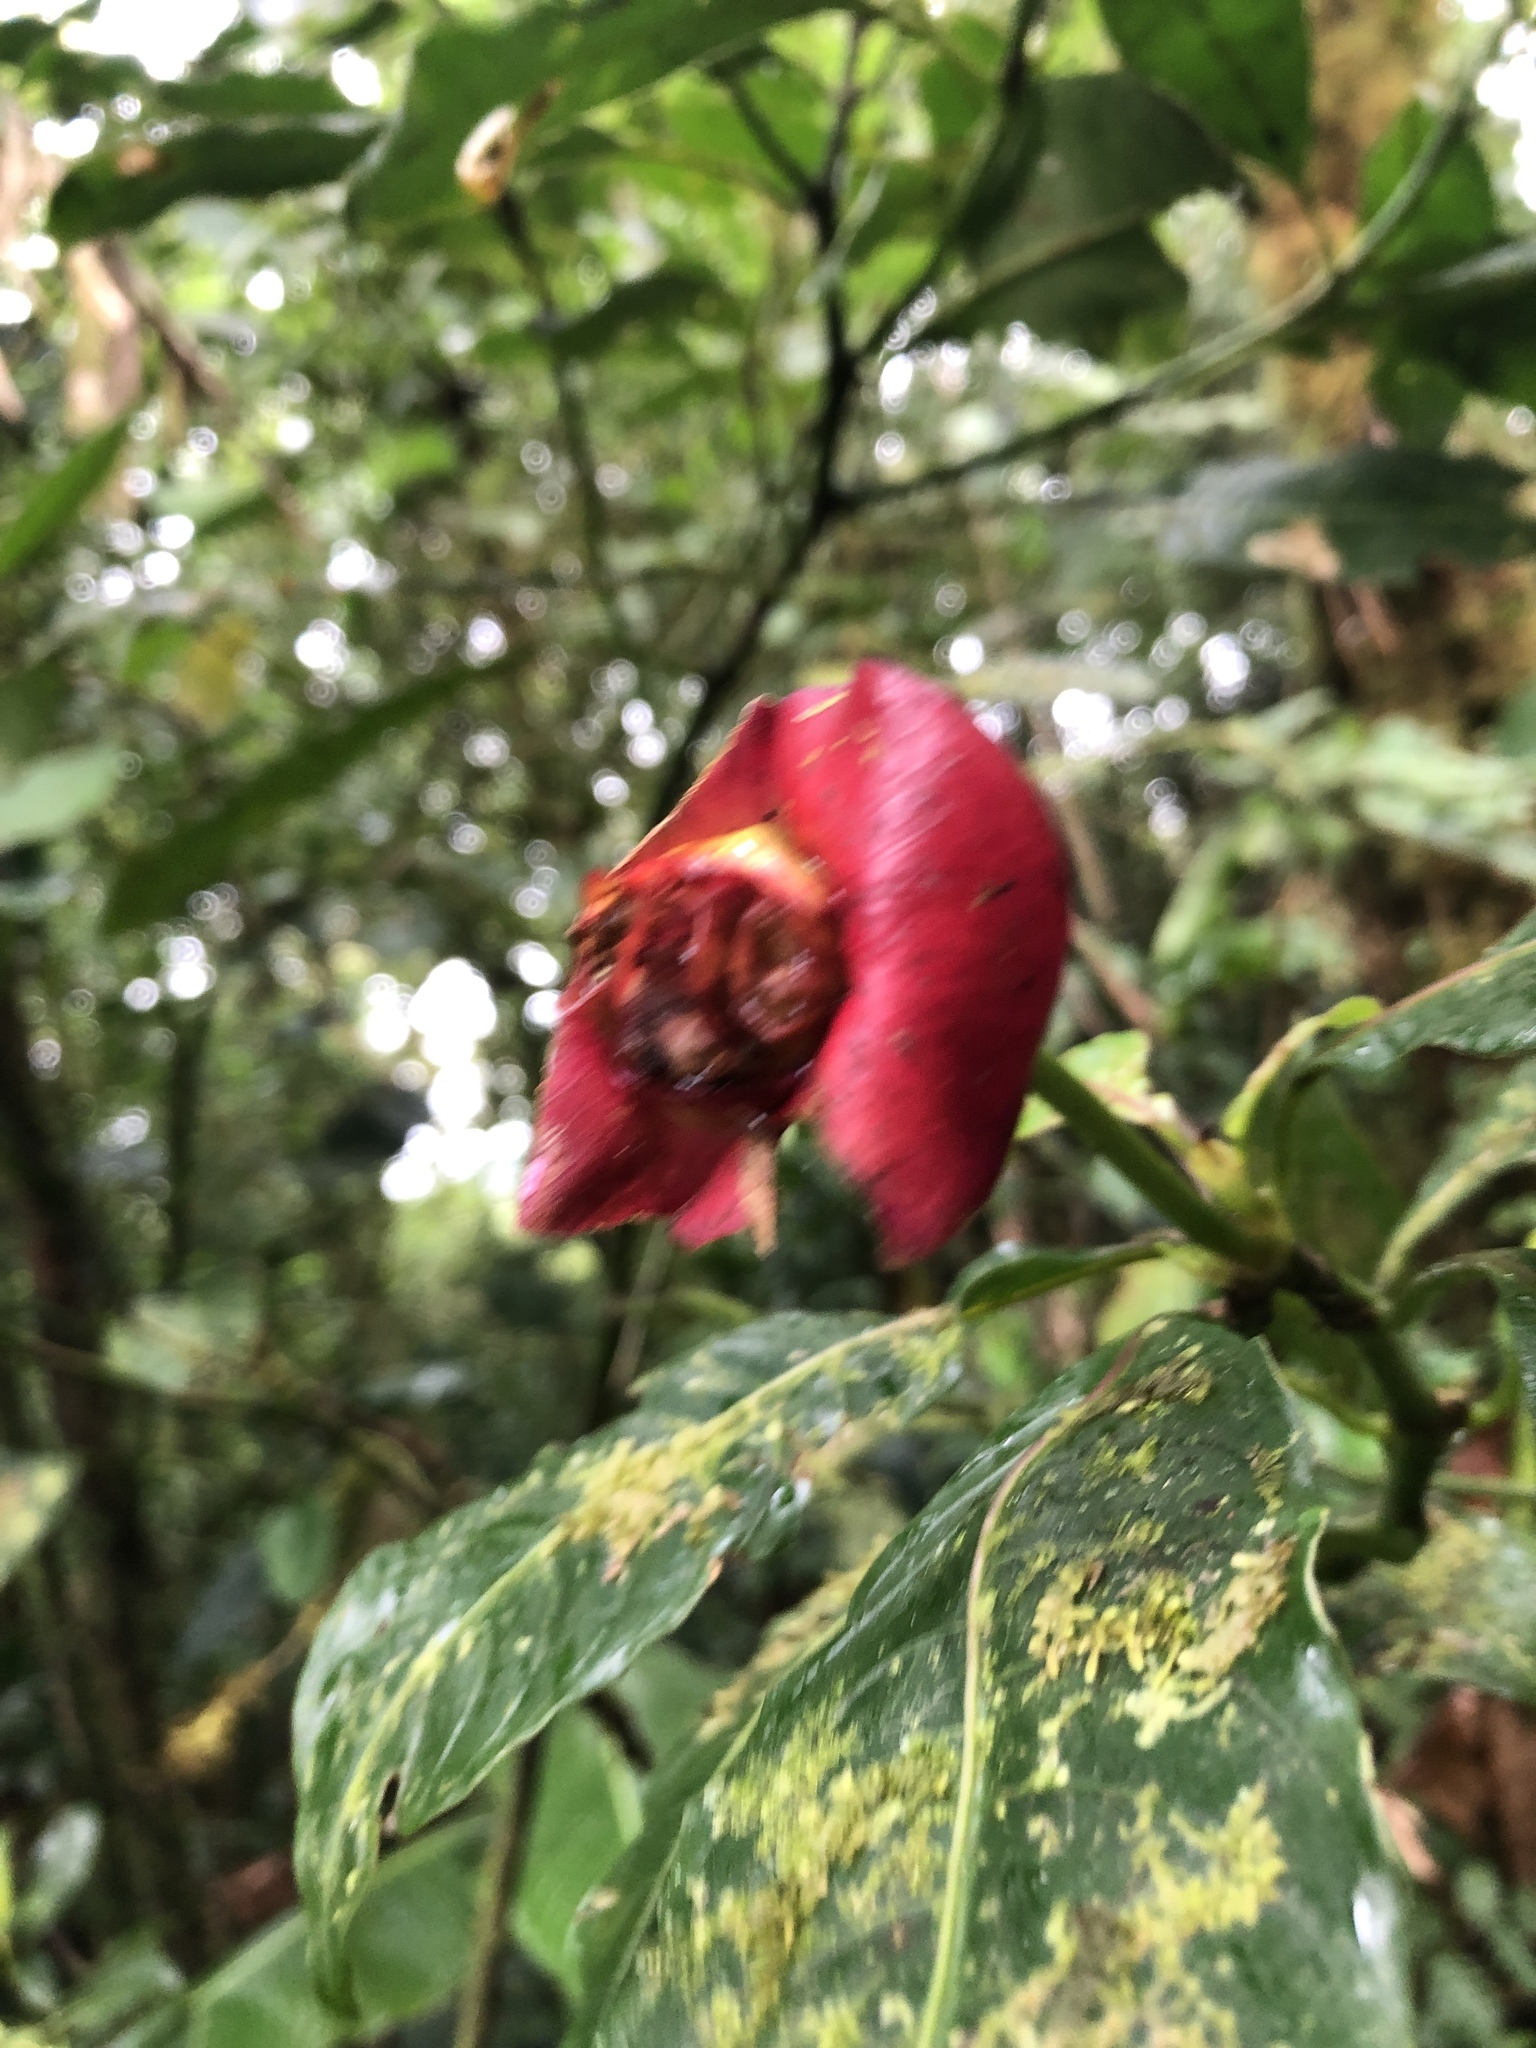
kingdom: Plantae
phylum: Tracheophyta
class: Magnoliopsida
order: Gentianales
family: Rubiaceae
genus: Palicourea
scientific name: Palicourea elata
